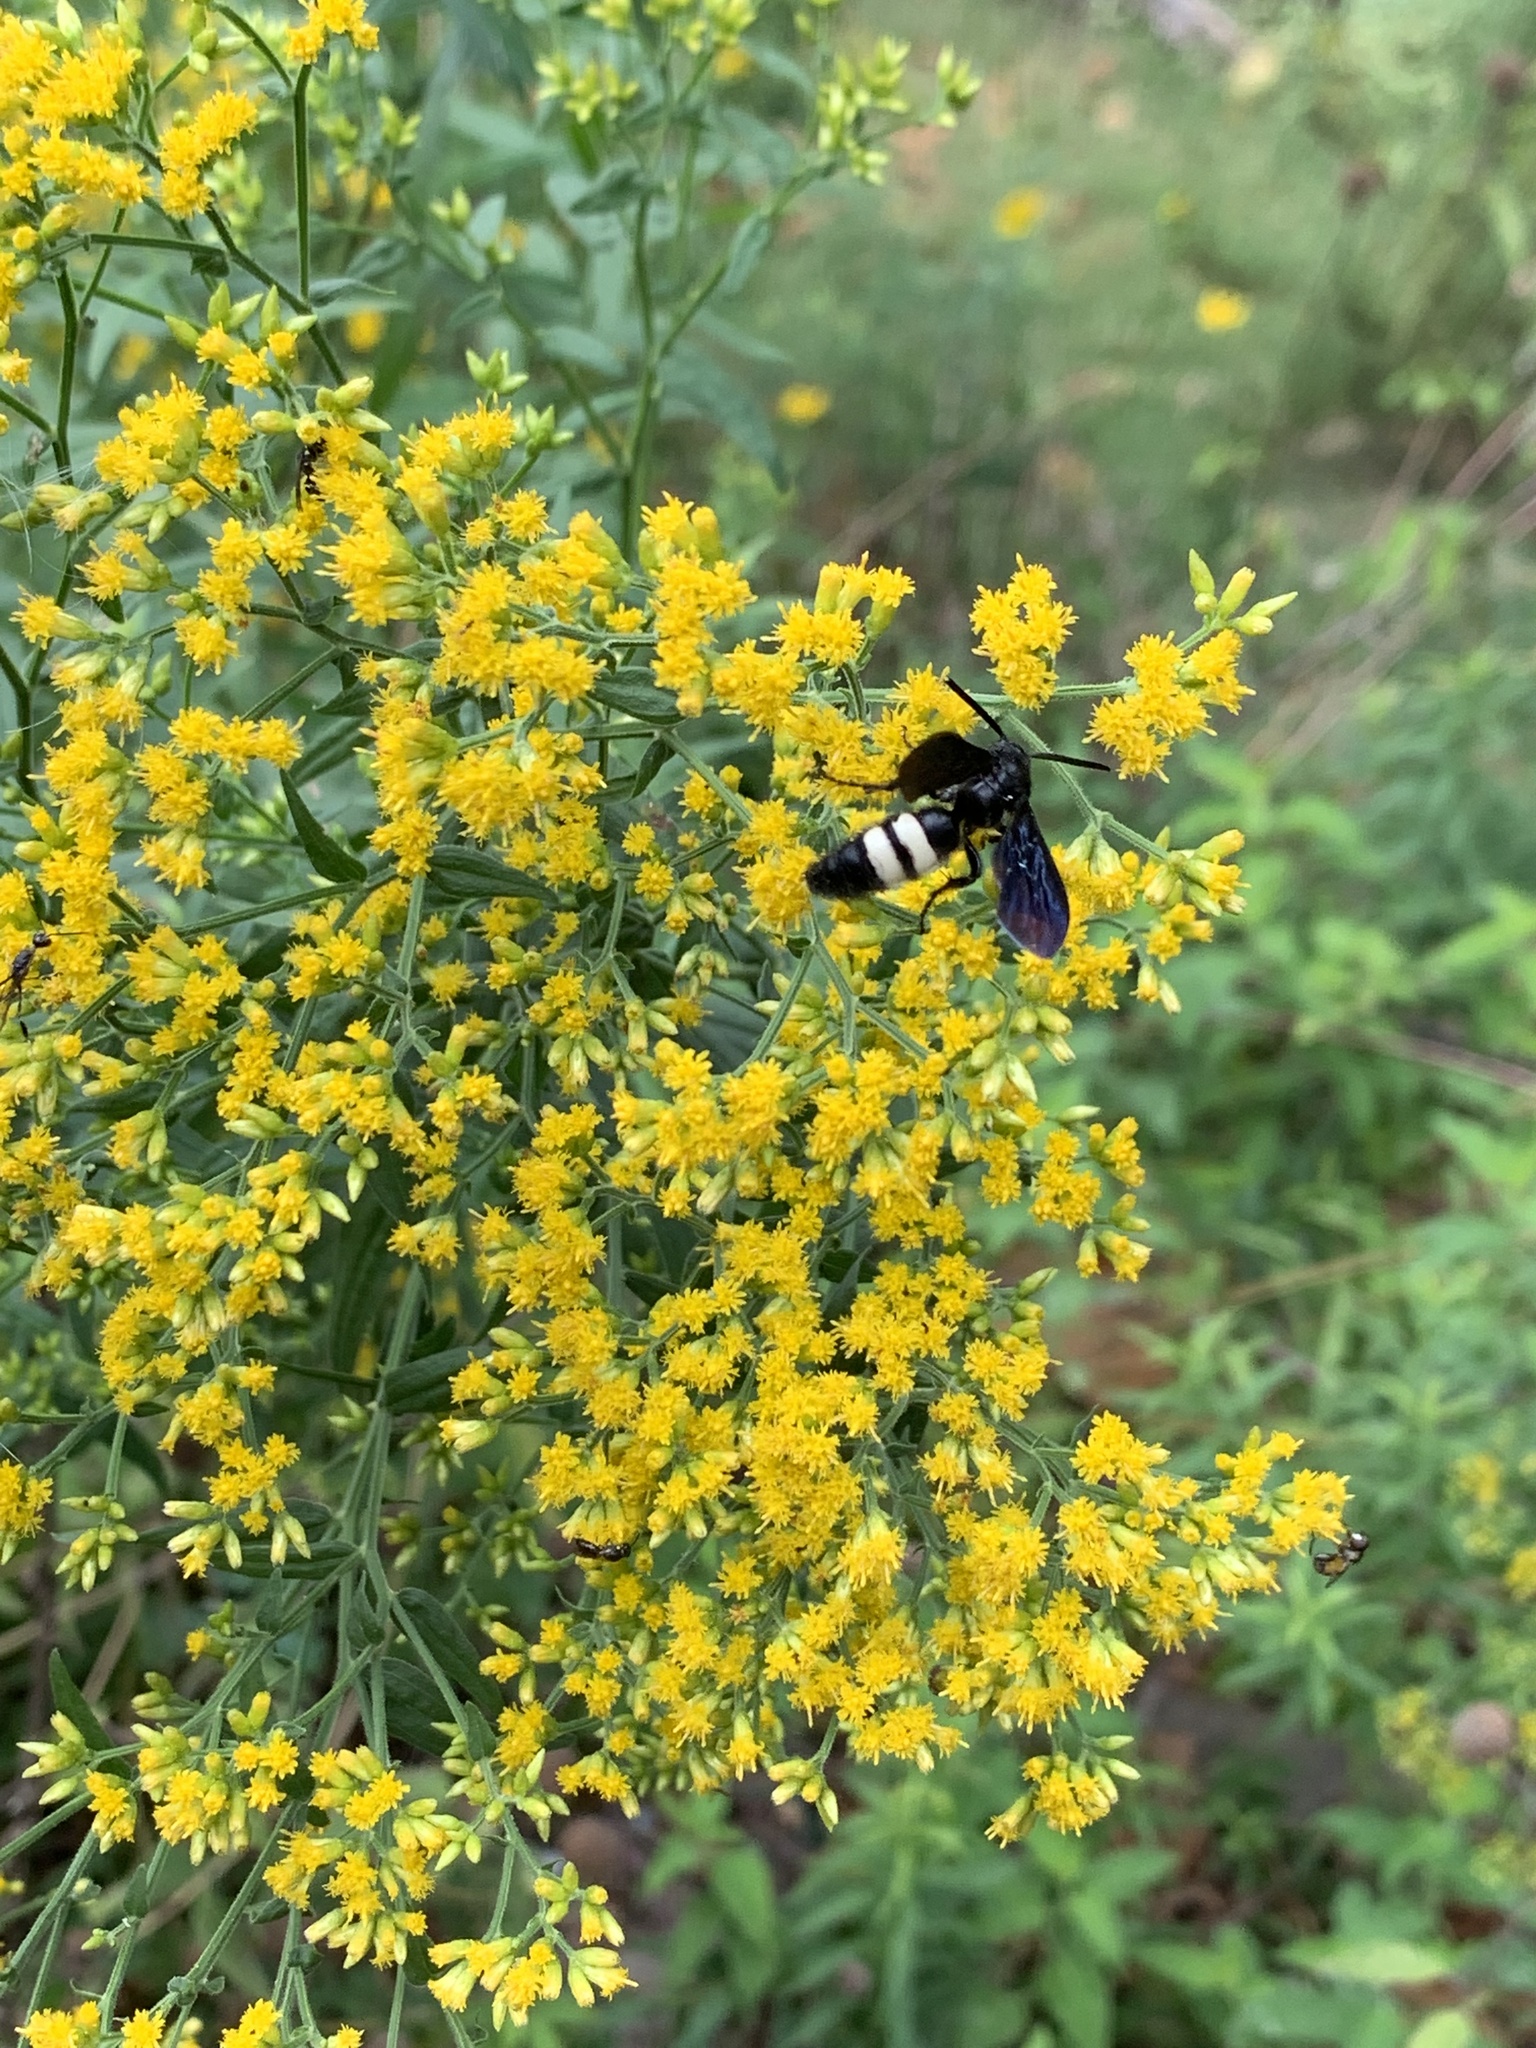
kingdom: Animalia
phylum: Arthropoda
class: Insecta
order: Hymenoptera
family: Scoliidae
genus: Scolia
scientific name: Scolia bicincta
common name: Double-banded scoliid wasp
